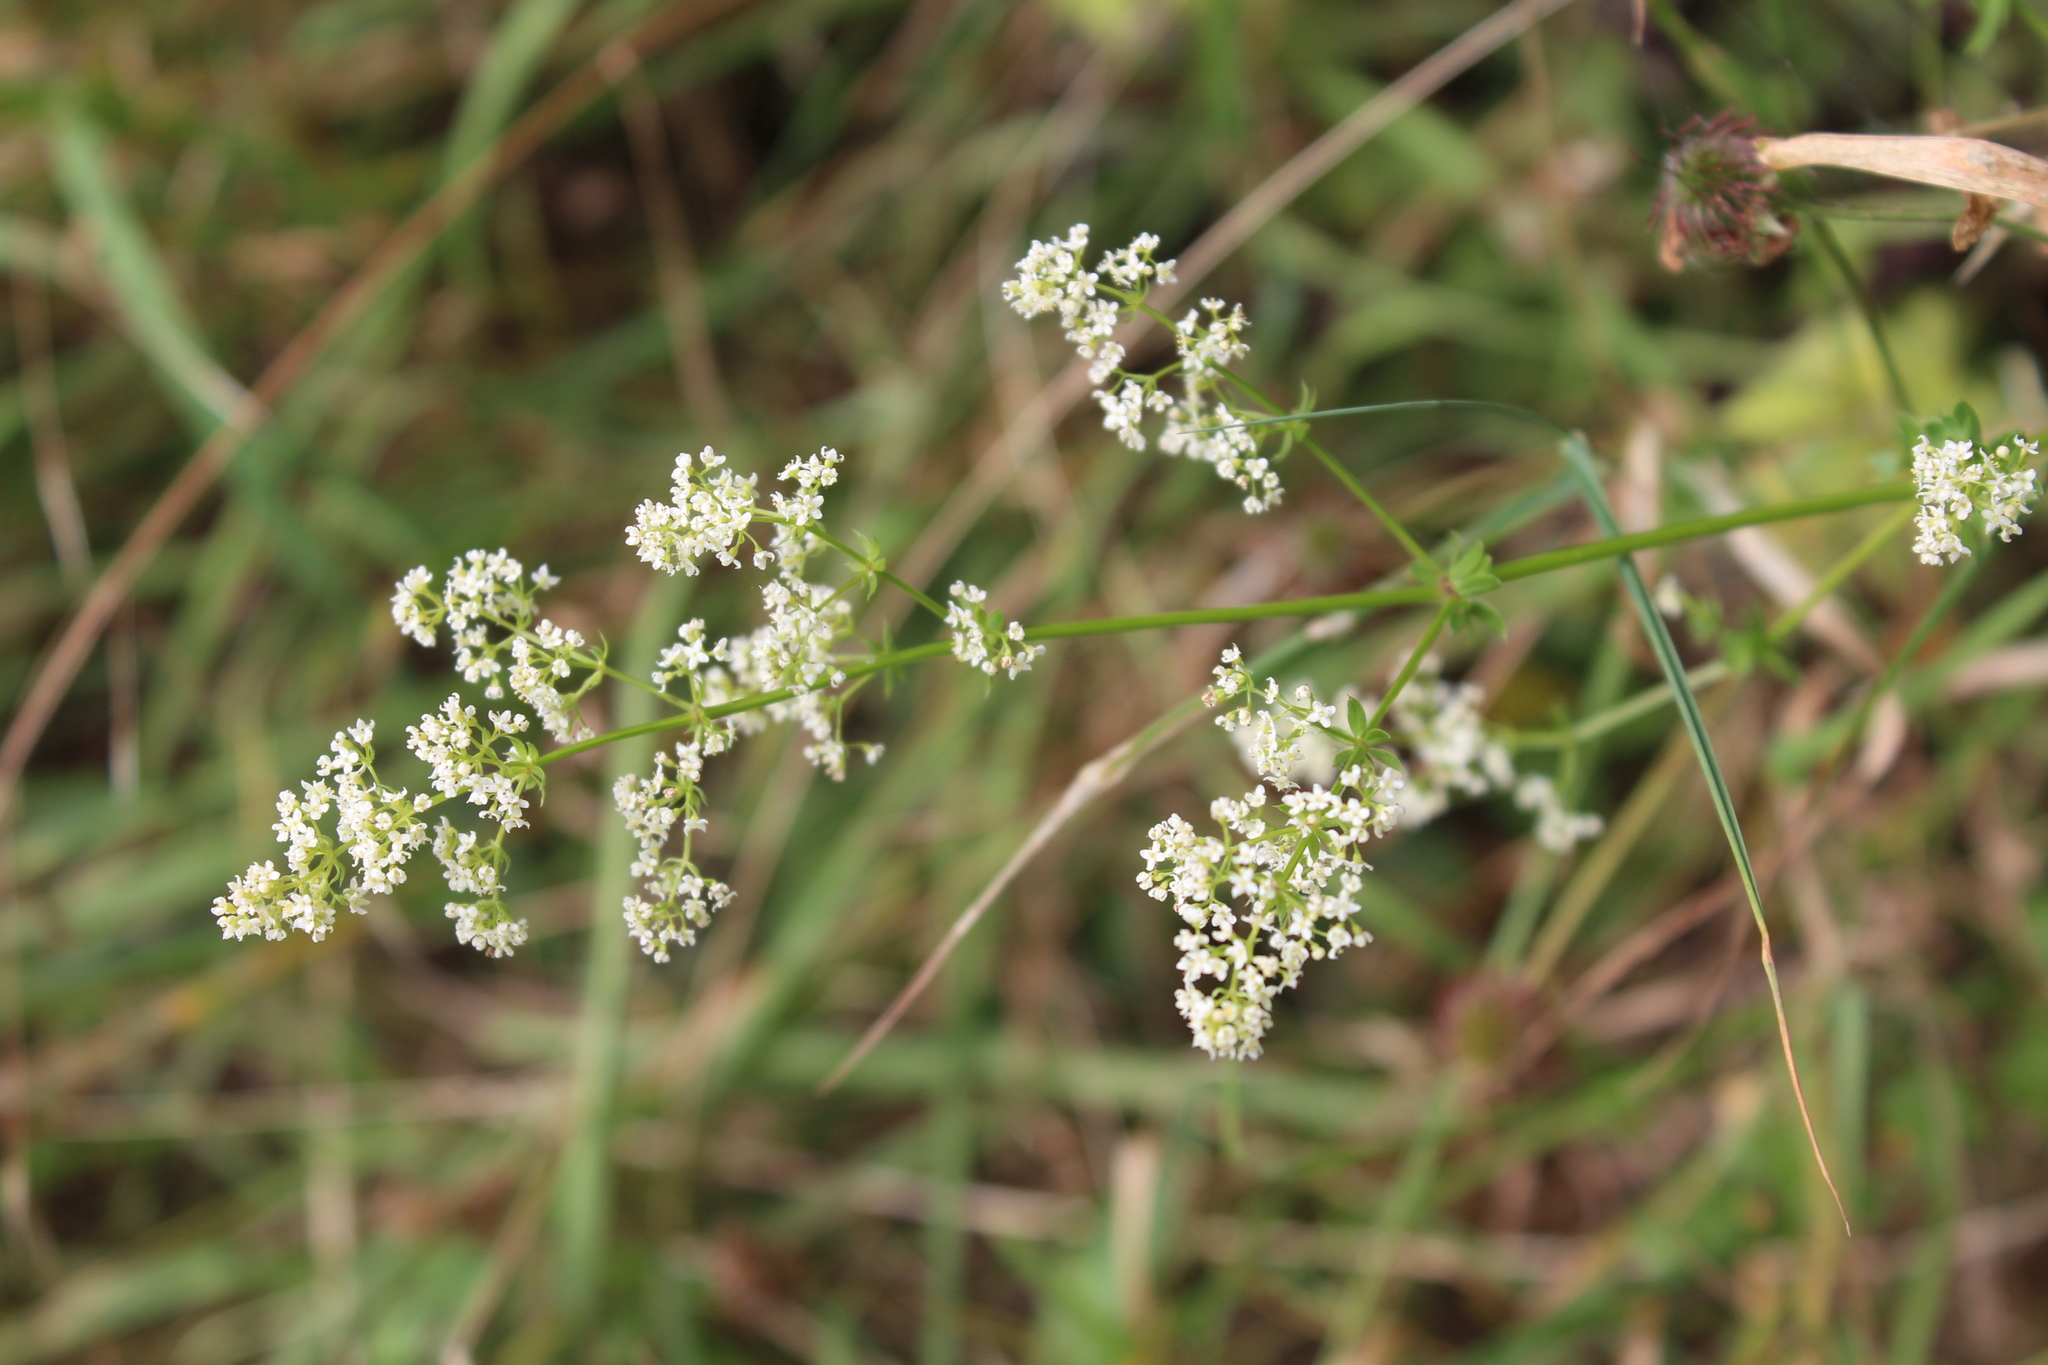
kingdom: Plantae
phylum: Tracheophyta
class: Magnoliopsida
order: Gentianales
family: Rubiaceae
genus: Galium
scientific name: Galium mollugo
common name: Hedge bedstraw
